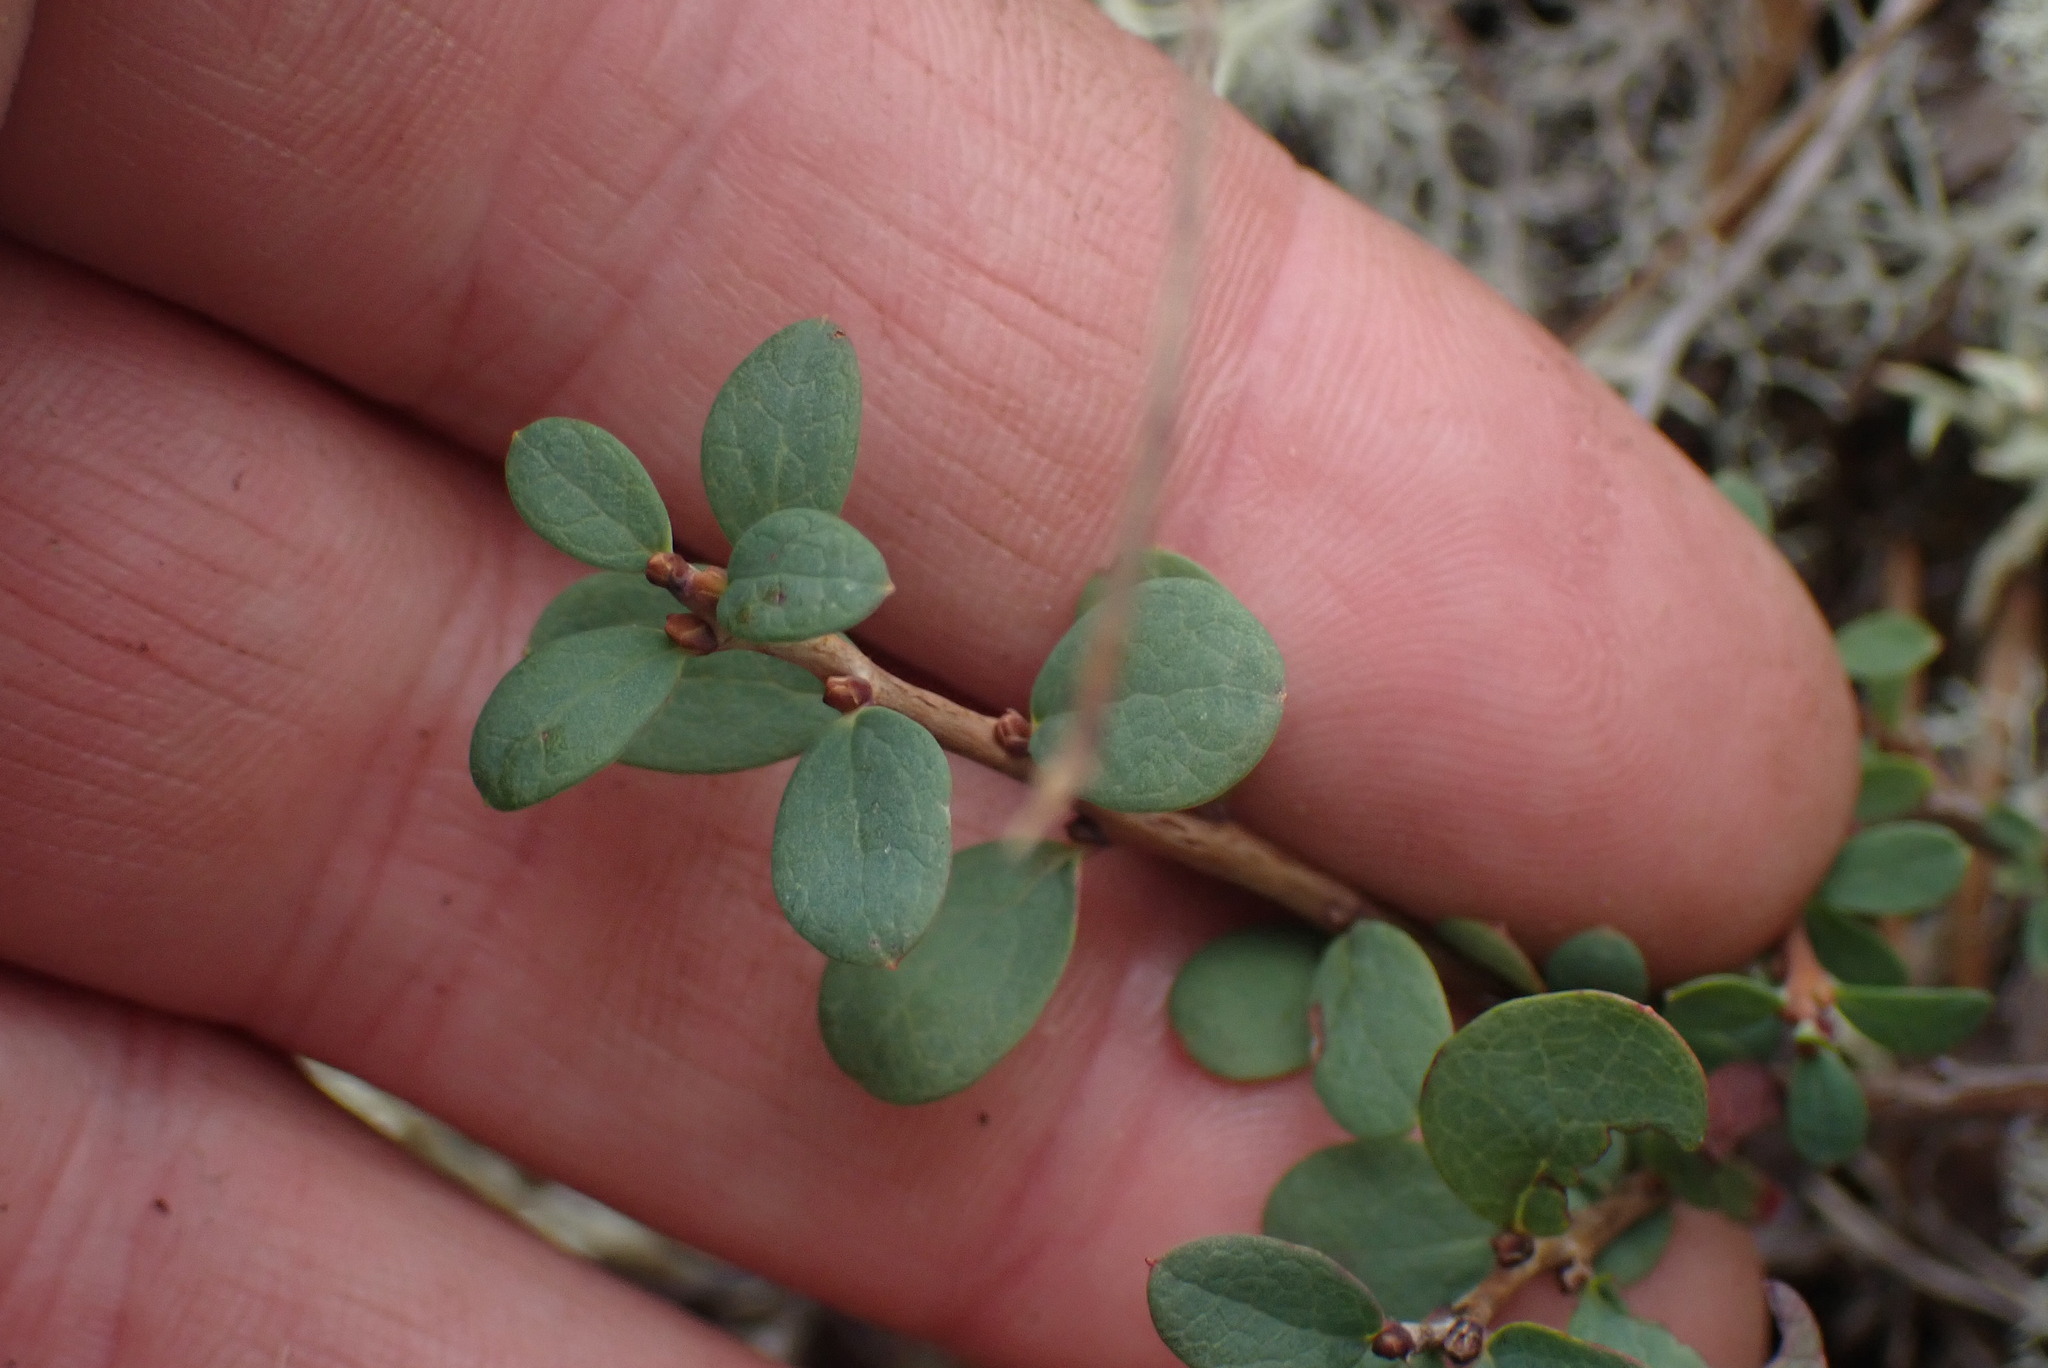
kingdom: Plantae
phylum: Tracheophyta
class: Magnoliopsida
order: Ericales
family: Ericaceae
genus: Vaccinium
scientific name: Vaccinium uliginosum
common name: Bog bilberry
